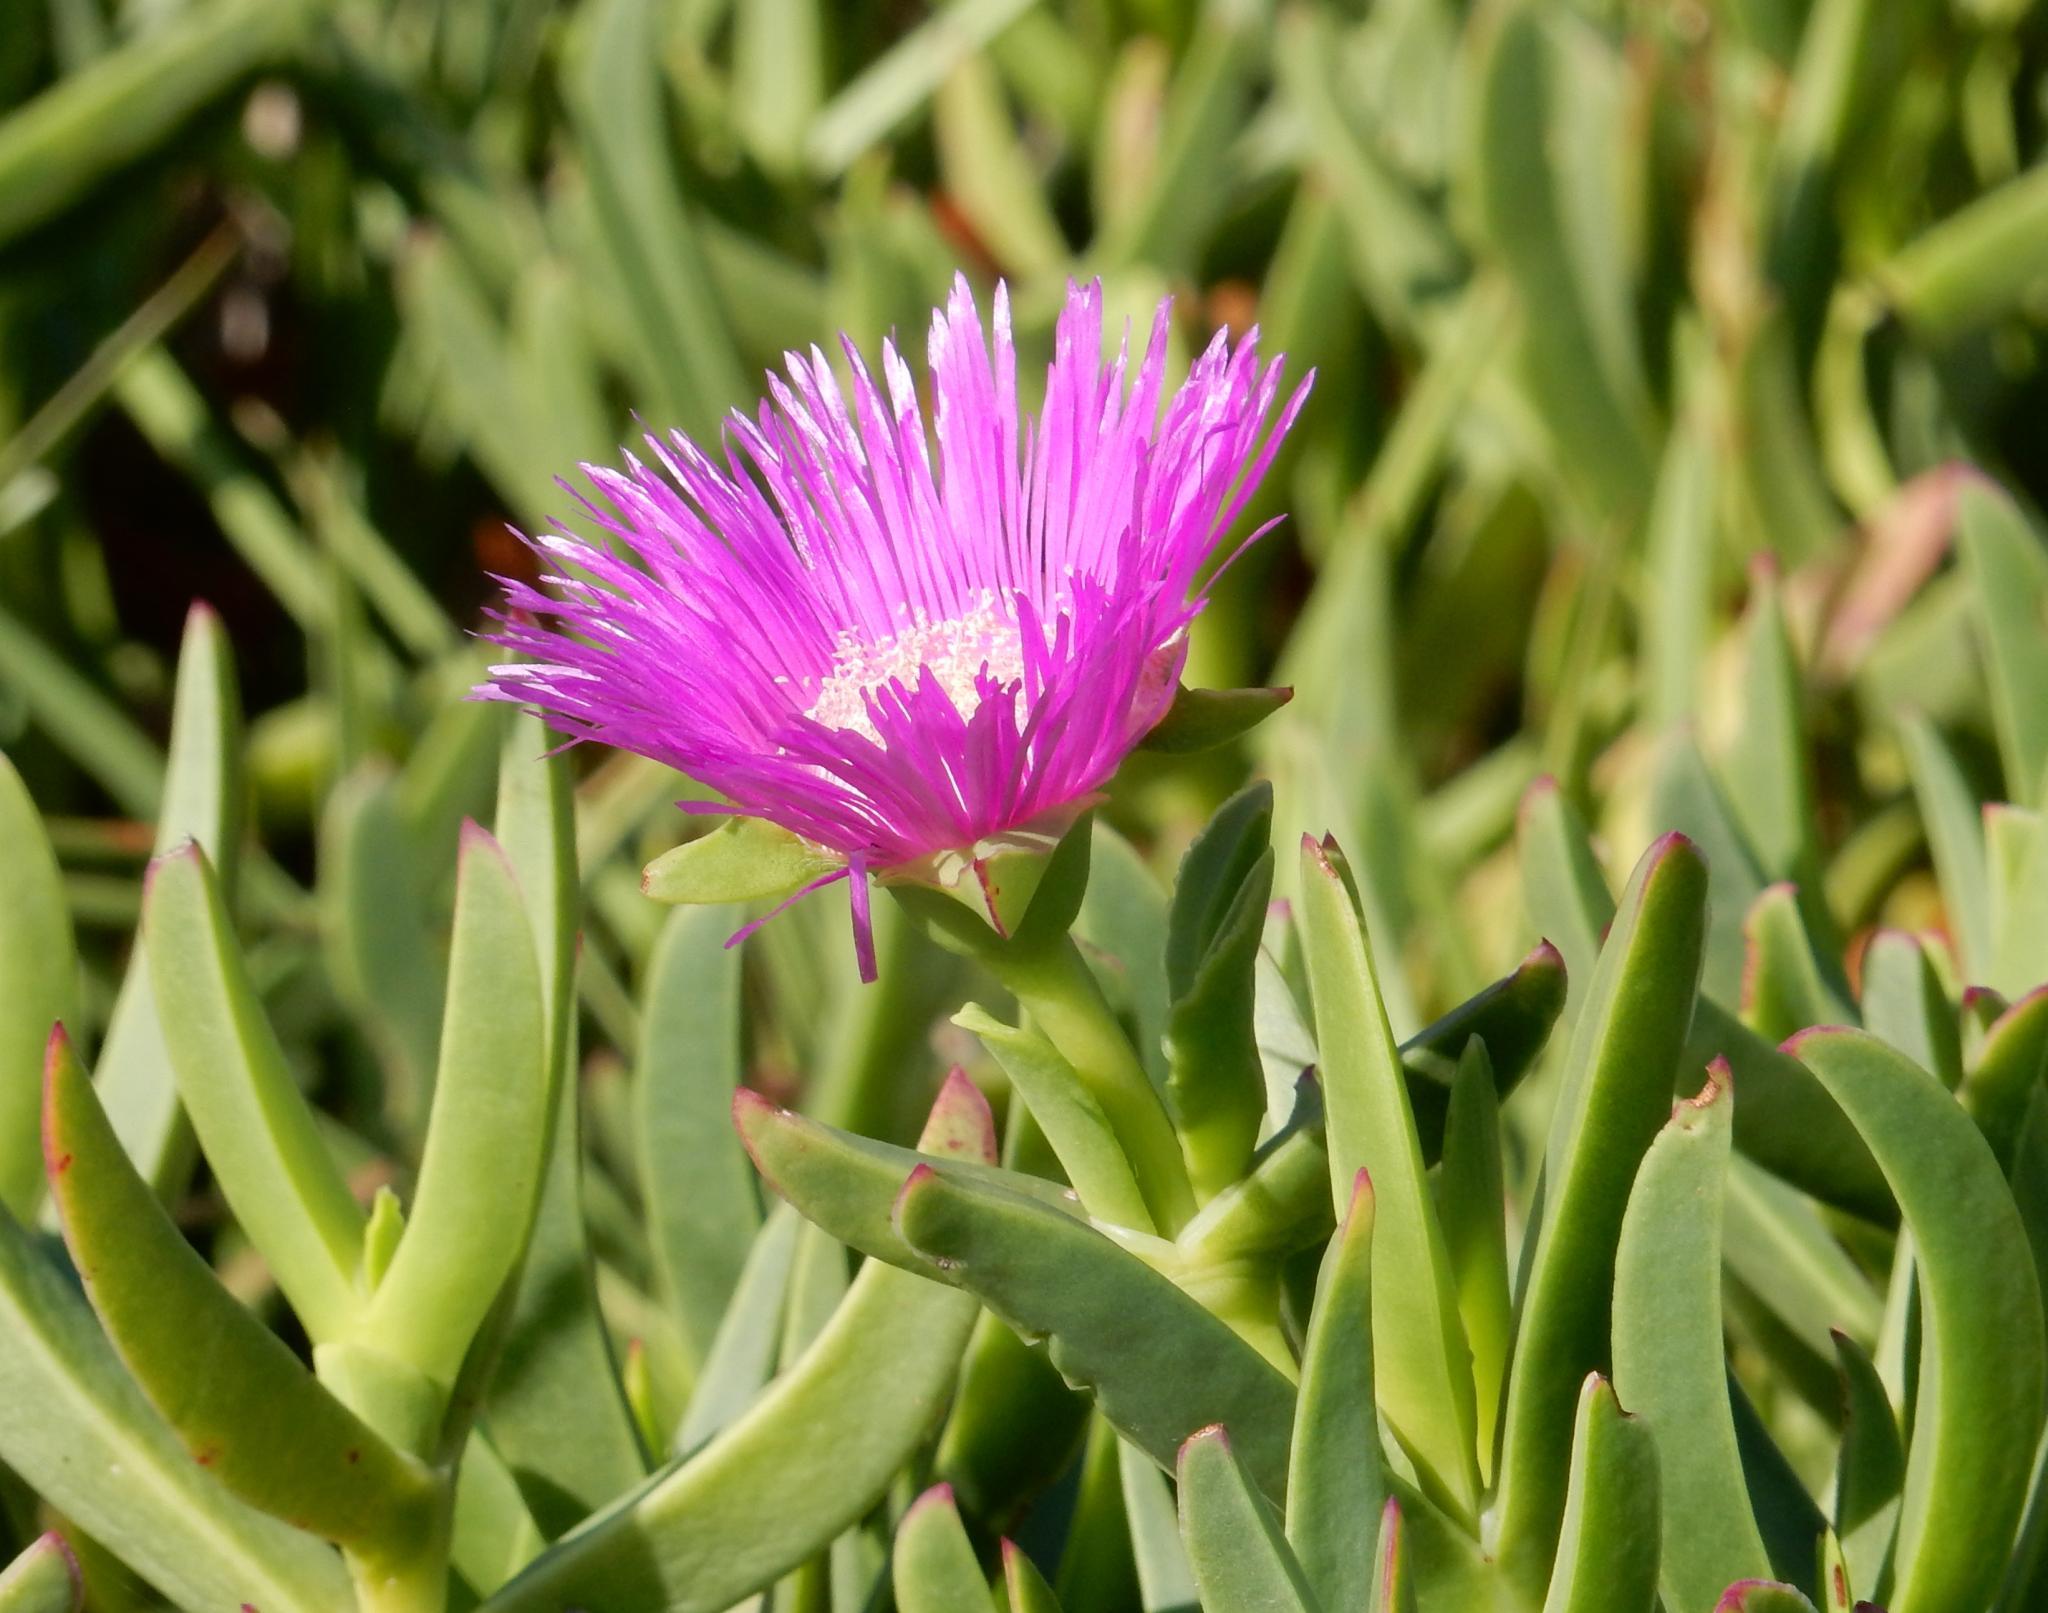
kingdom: Plantae
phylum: Tracheophyta
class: Magnoliopsida
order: Caryophyllales
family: Aizoaceae
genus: Carpobrotus
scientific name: Carpobrotus deliciosus
